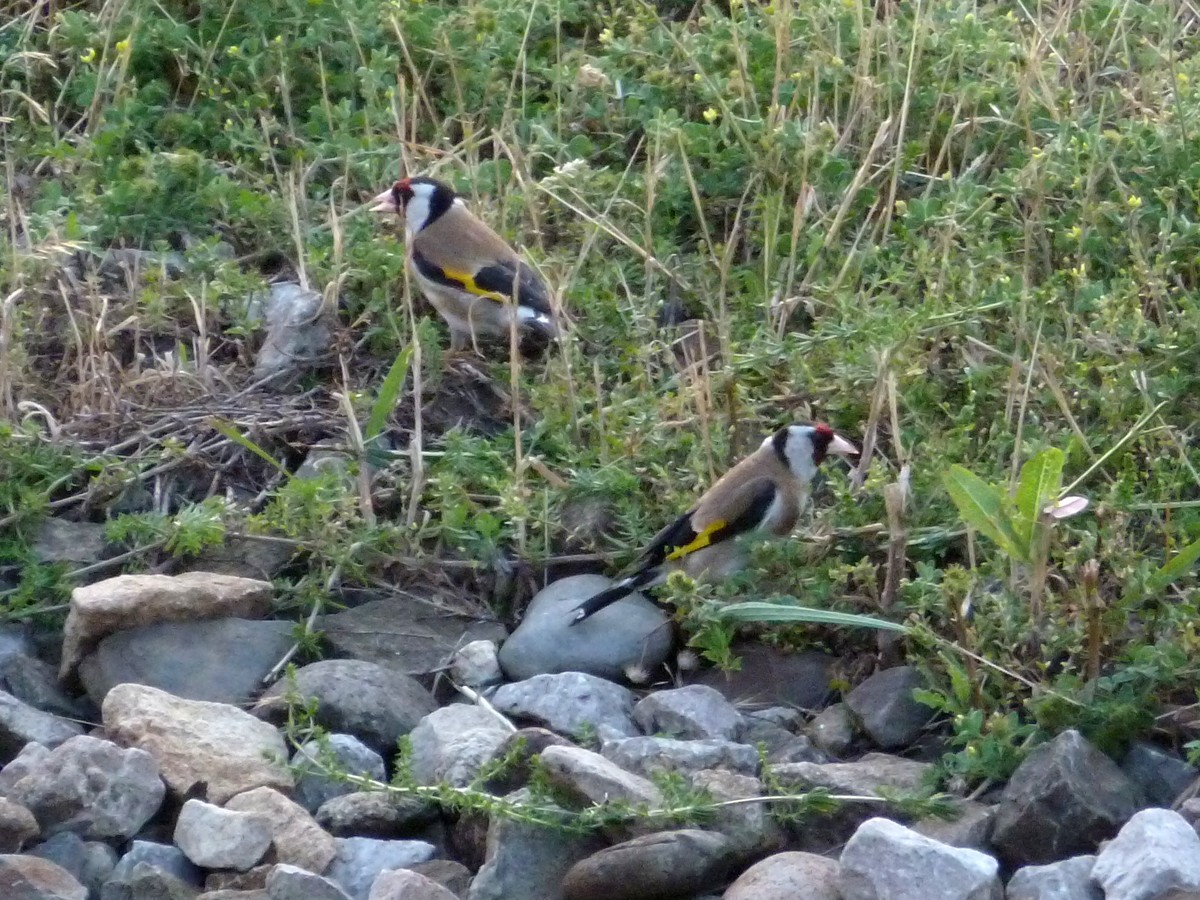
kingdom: Animalia
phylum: Chordata
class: Aves
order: Passeriformes
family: Fringillidae
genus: Carduelis
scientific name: Carduelis carduelis
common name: European goldfinch
